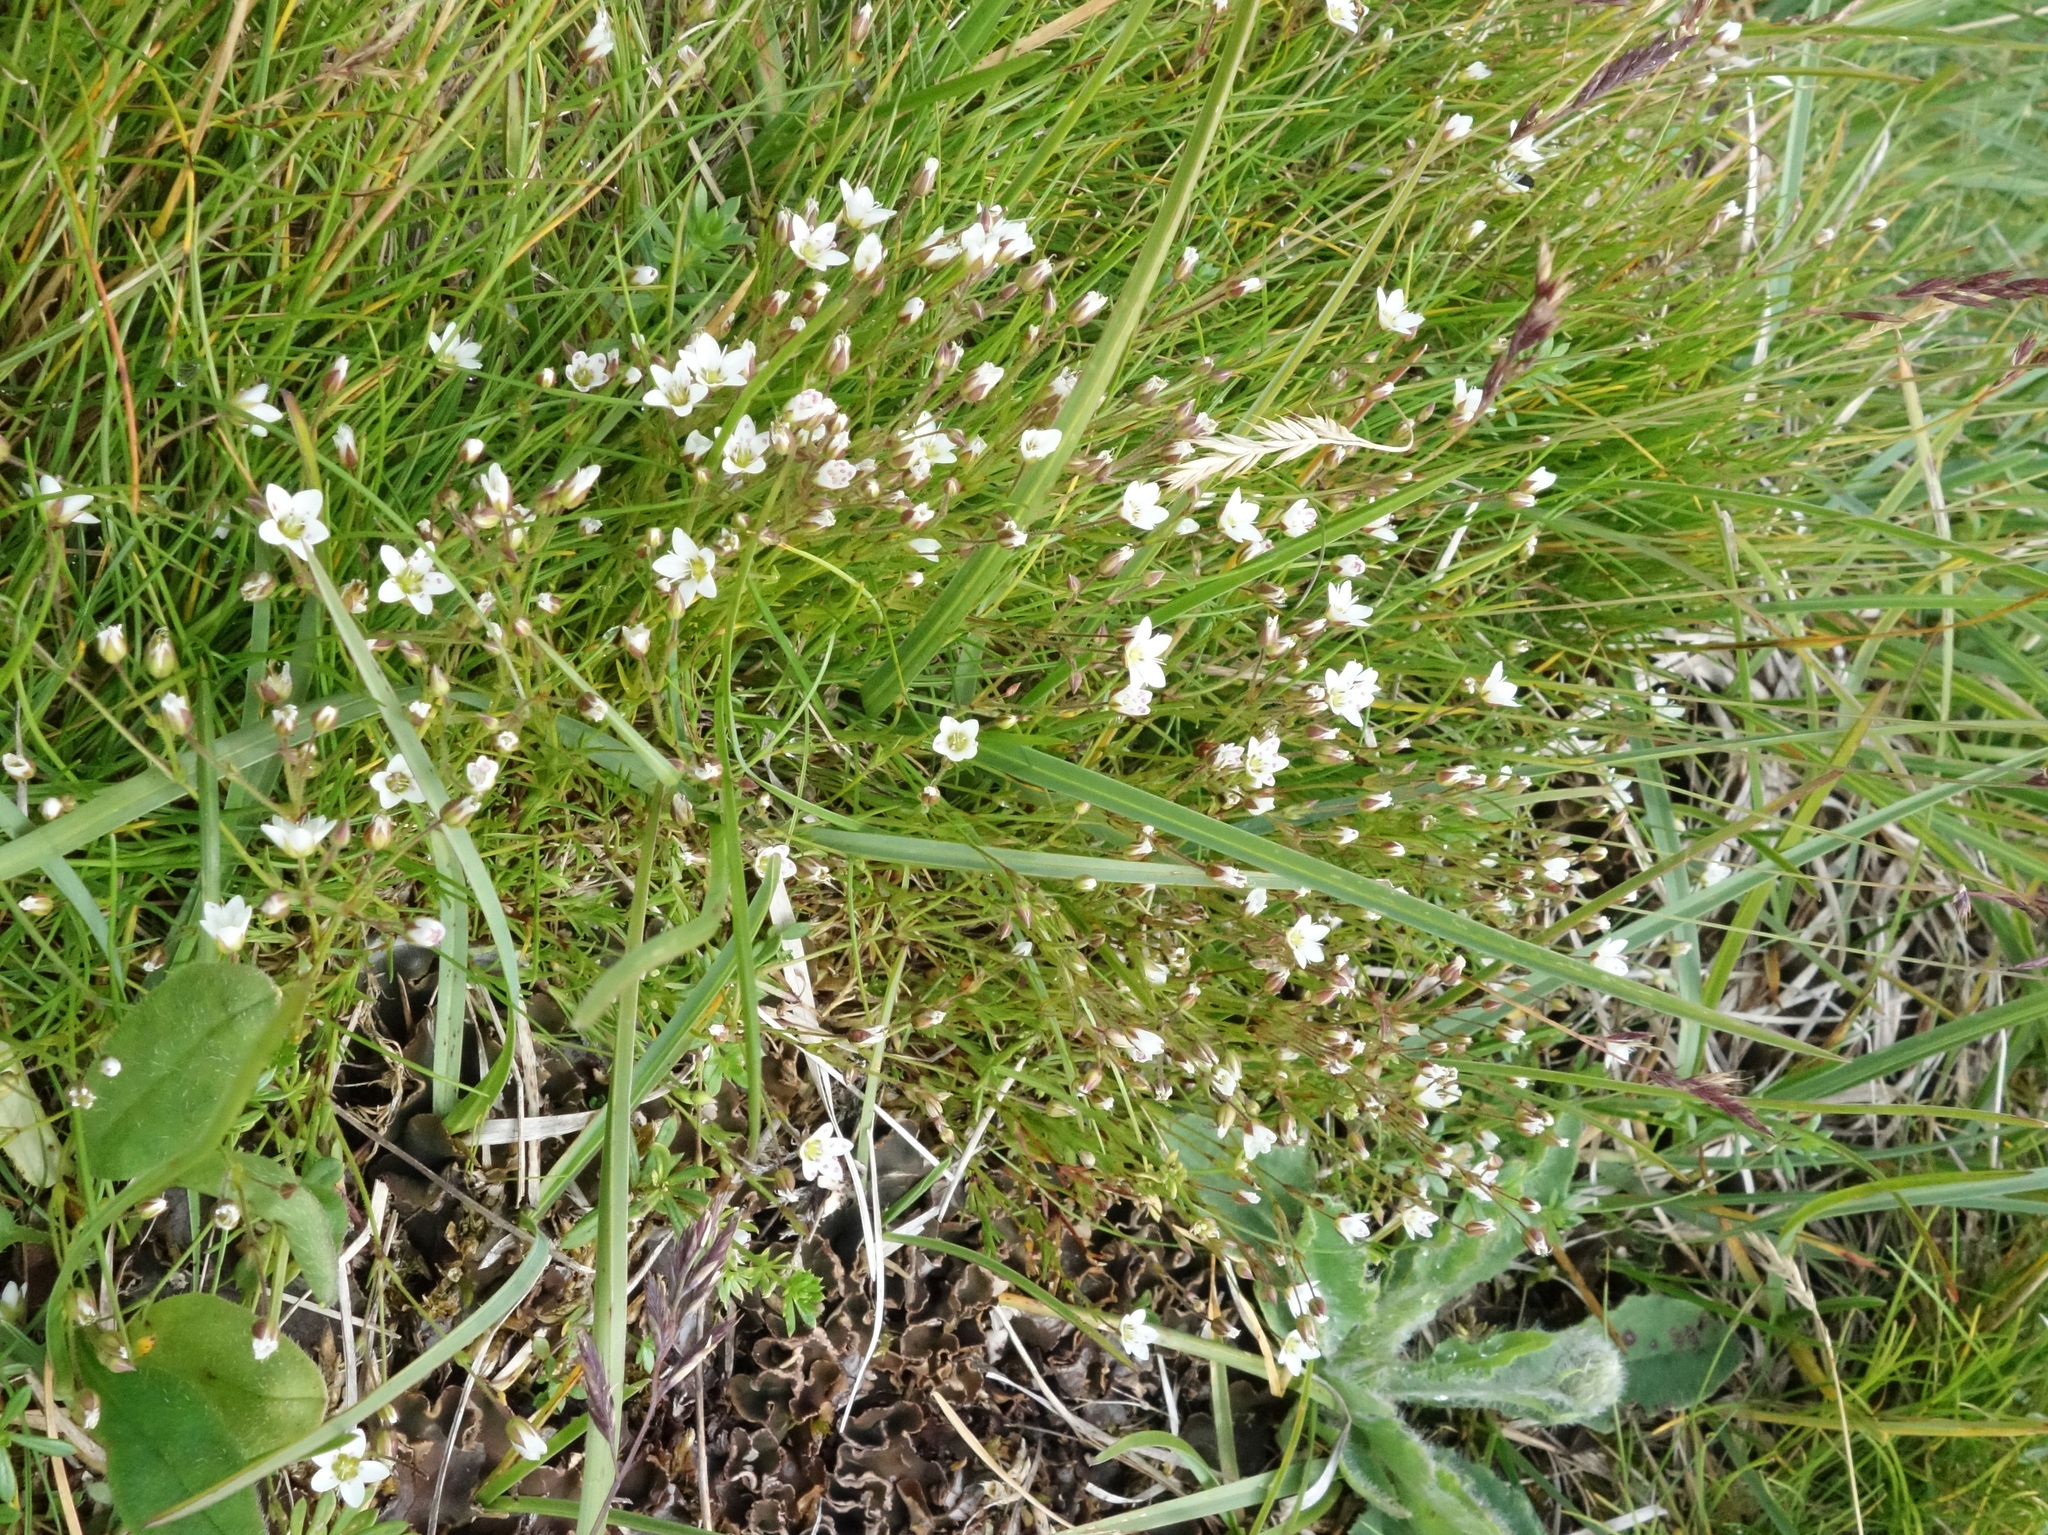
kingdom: Plantae
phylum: Tracheophyta
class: Magnoliopsida
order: Caryophyllales
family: Caryophyllaceae
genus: Sabulina
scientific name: Sabulina verna
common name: Spring sandwort
